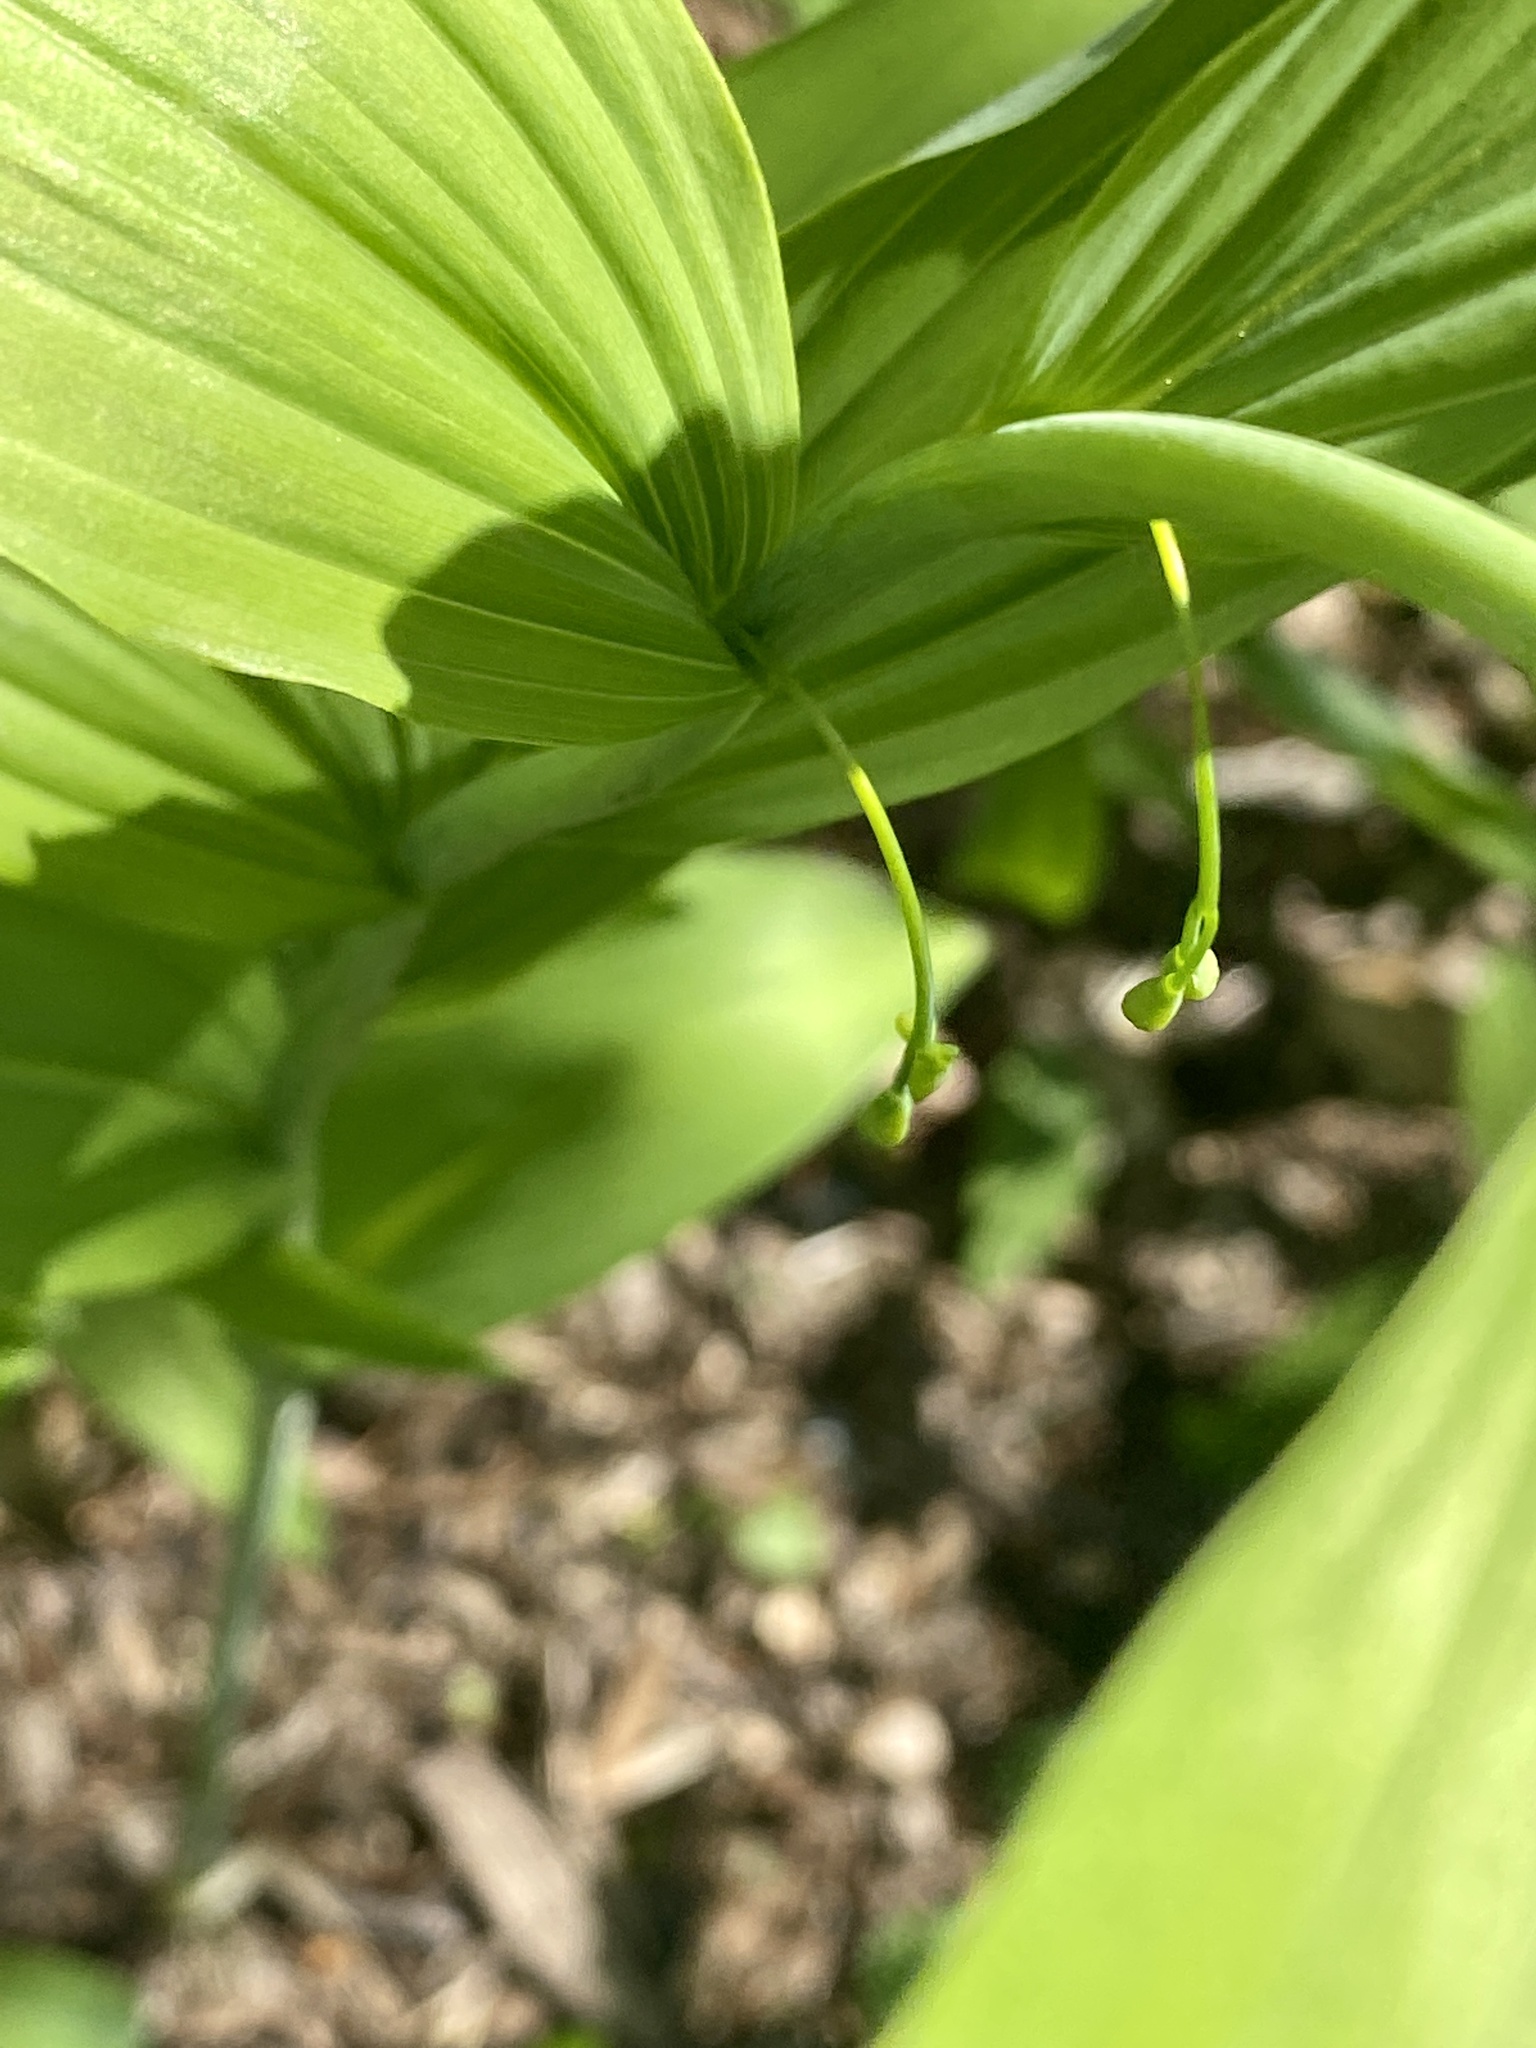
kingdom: Plantae
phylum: Tracheophyta
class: Liliopsida
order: Asparagales
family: Asparagaceae
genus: Polygonatum
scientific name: Polygonatum biflorum
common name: American solomon's-seal
